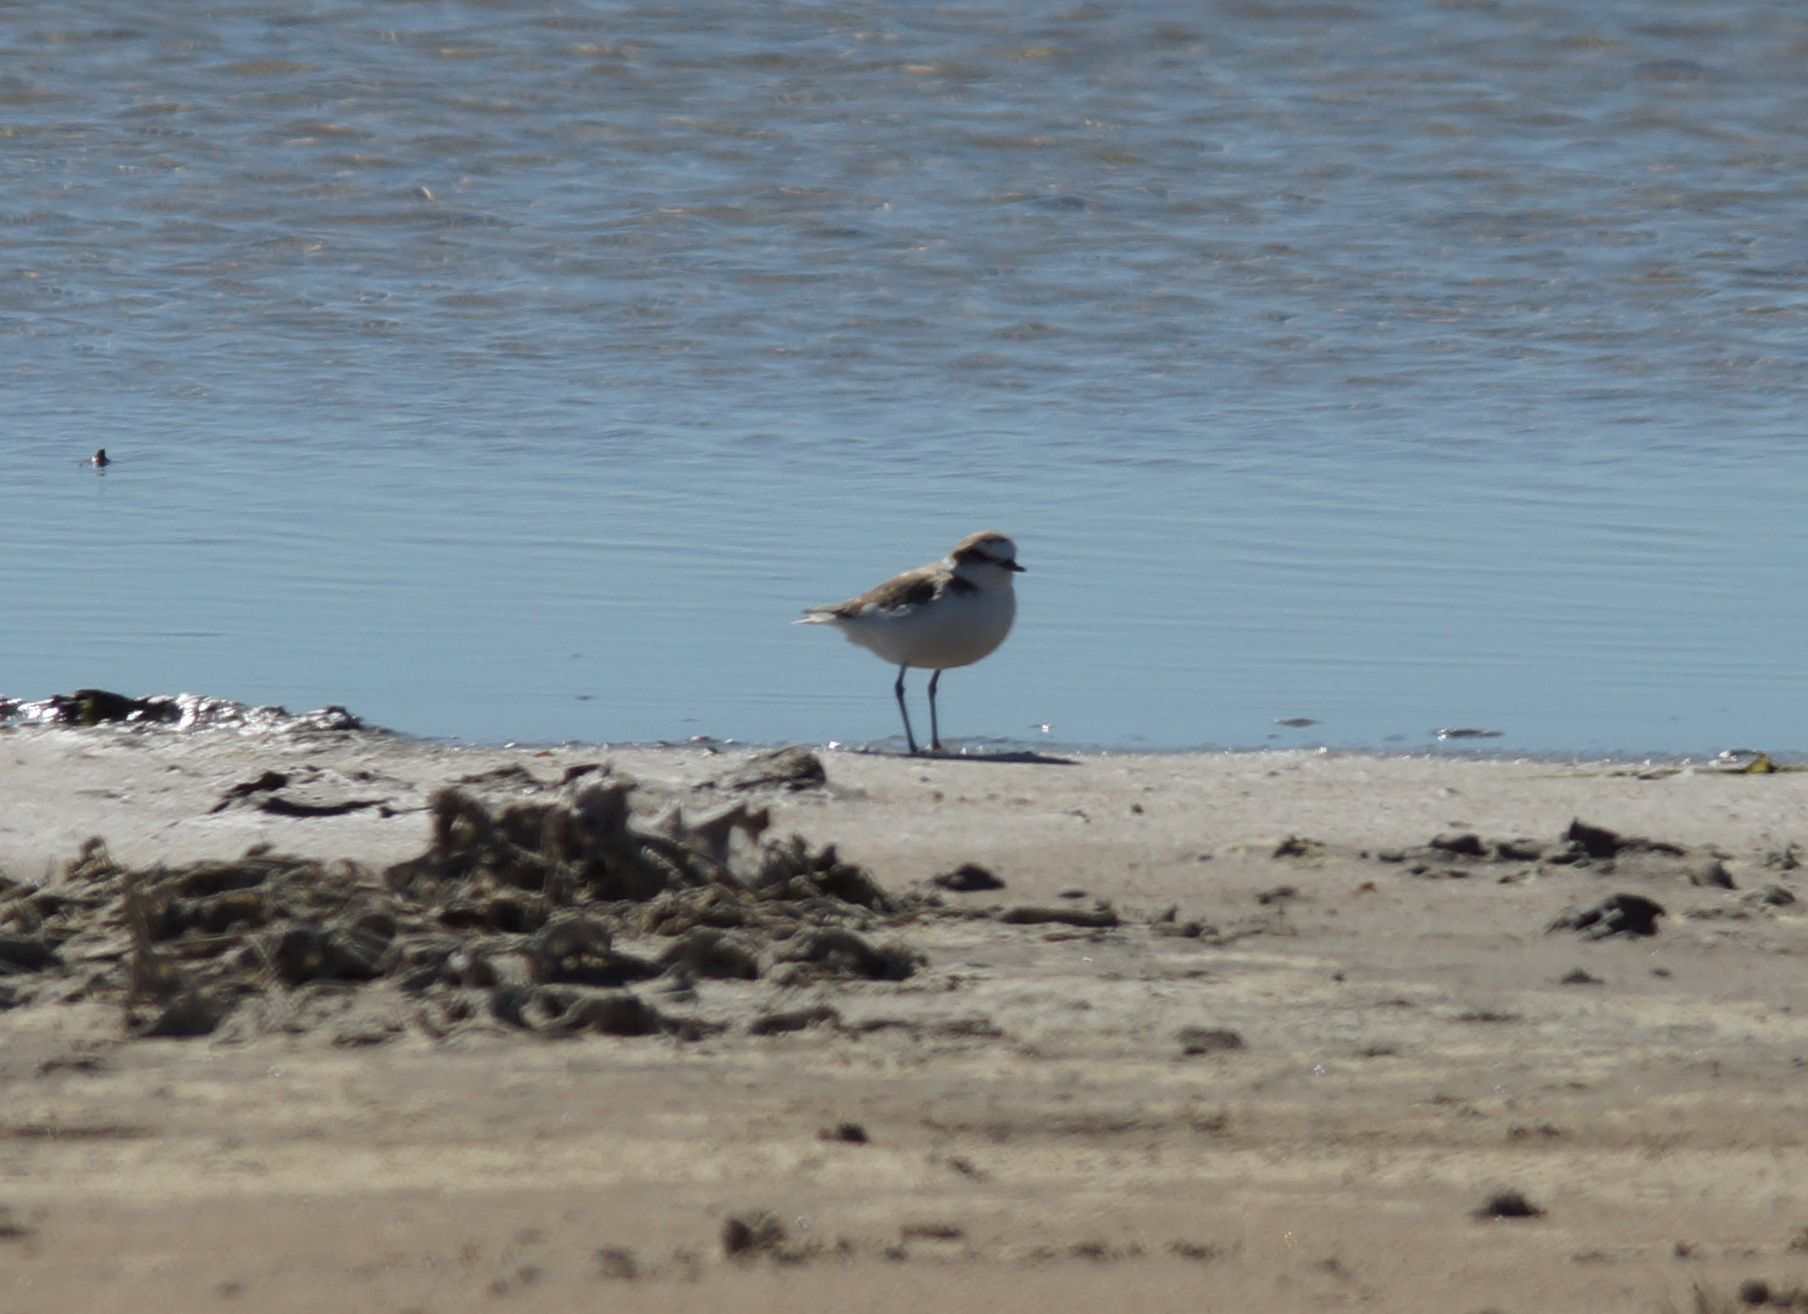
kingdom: Animalia
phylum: Chordata
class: Aves
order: Charadriiformes
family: Charadriidae
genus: Charadrius
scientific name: Charadrius alexandrinus
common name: Kentish plover
